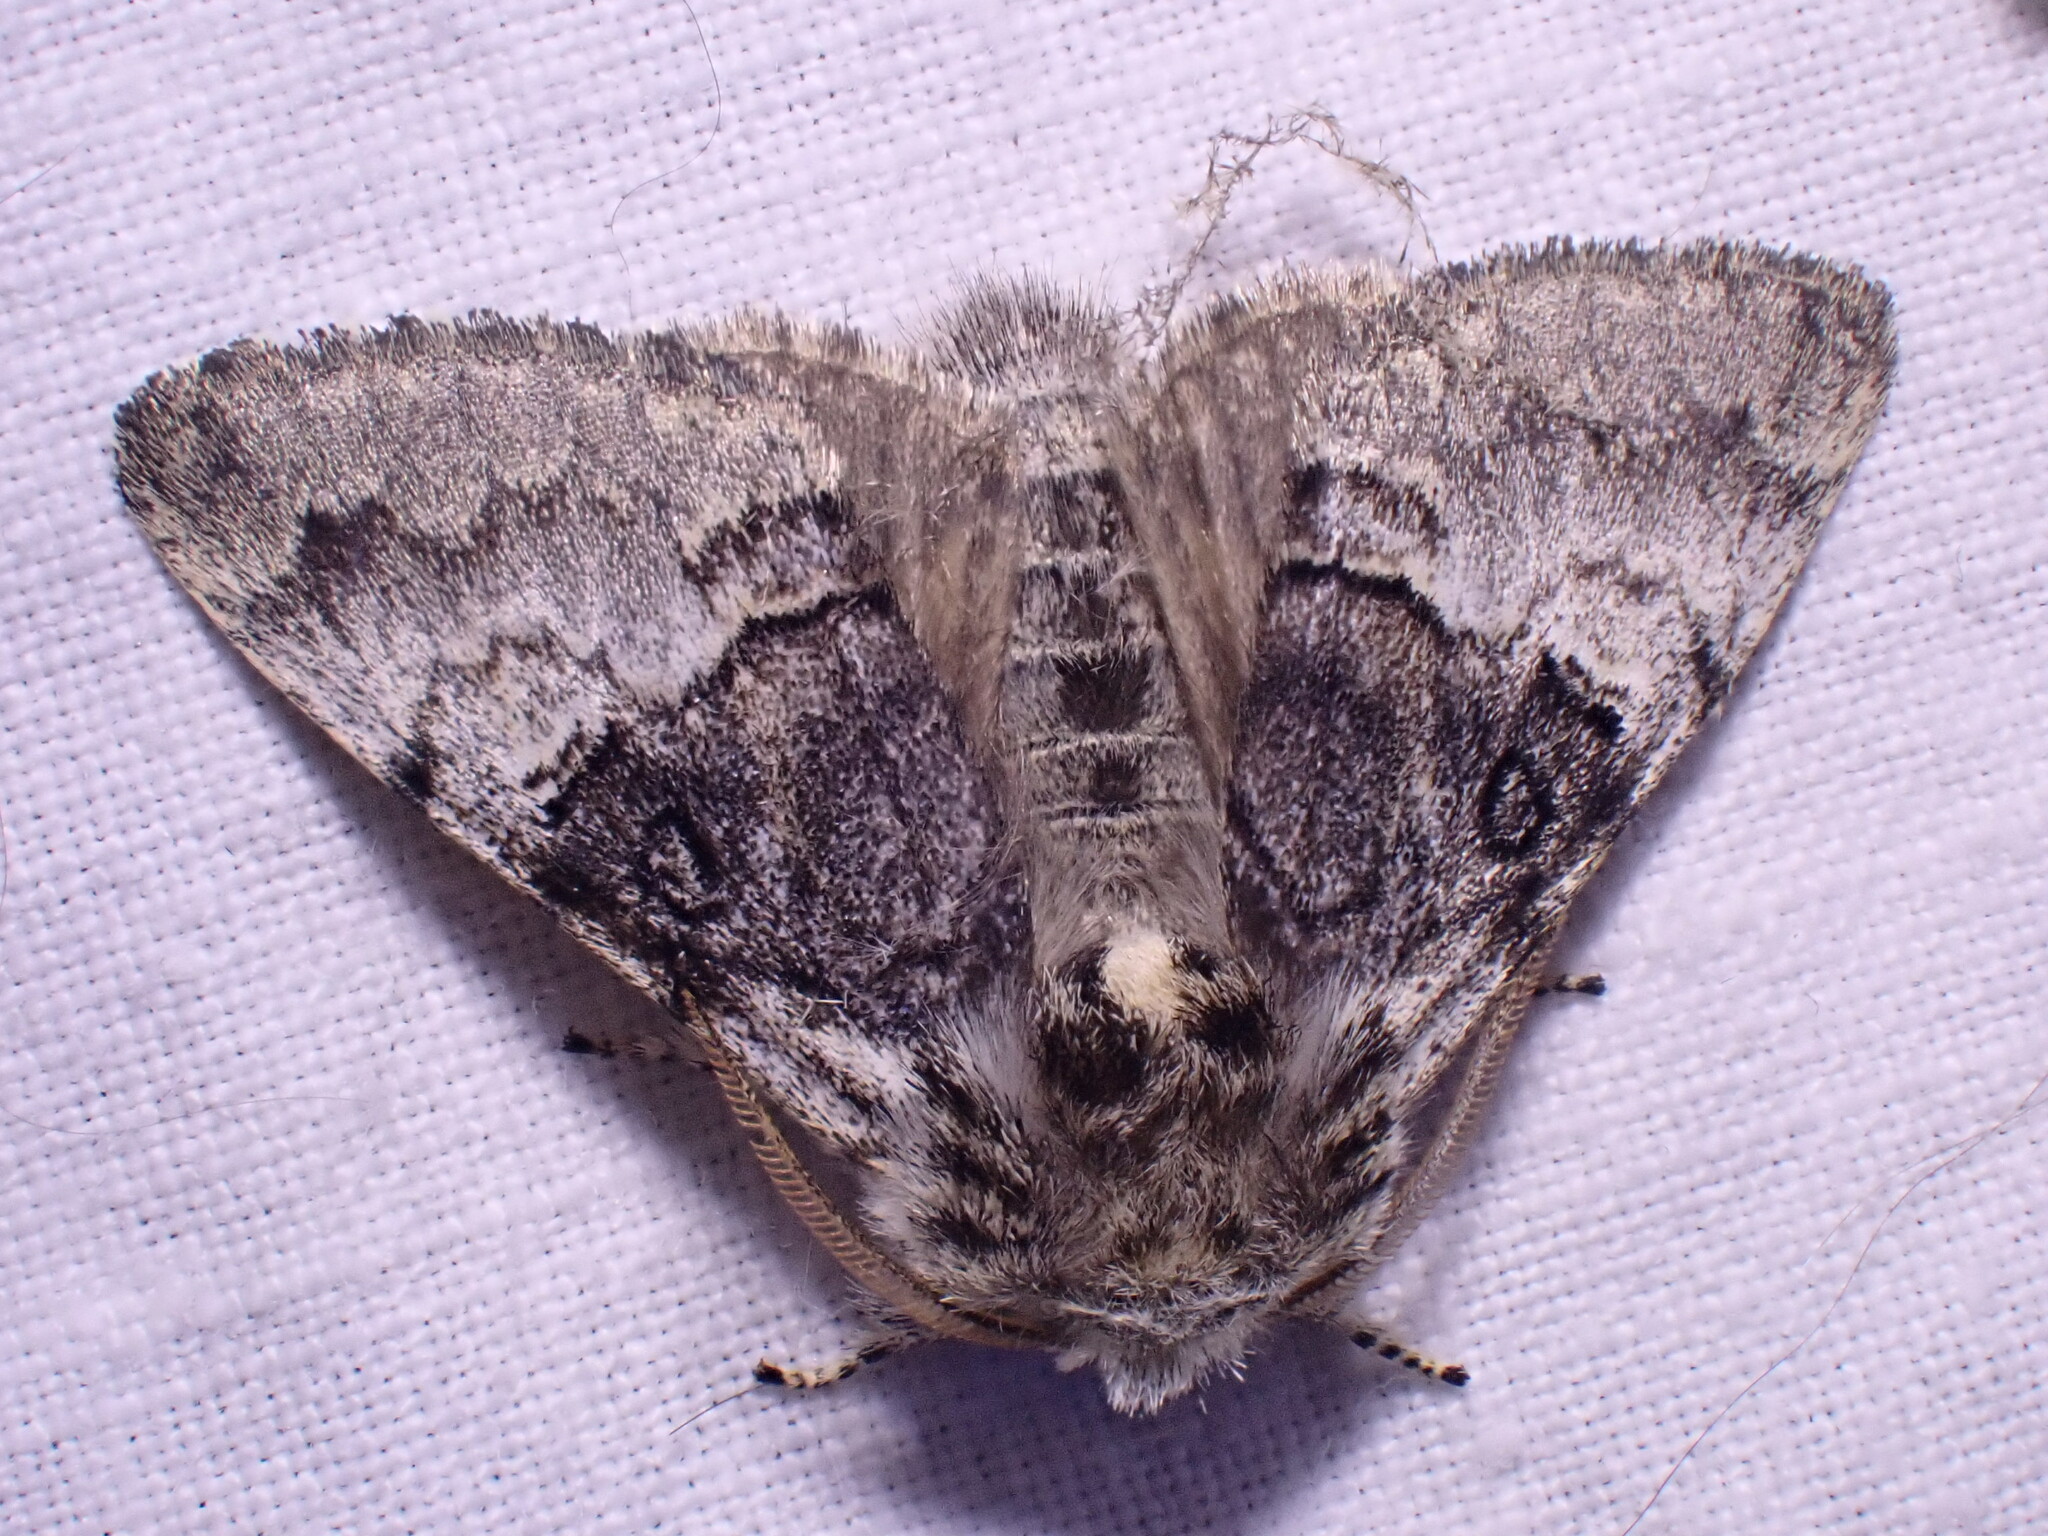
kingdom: Animalia
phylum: Arthropoda
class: Insecta
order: Lepidoptera
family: Noctuidae
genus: Colocasia
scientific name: Colocasia coryli
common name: Nut-tree tussock
